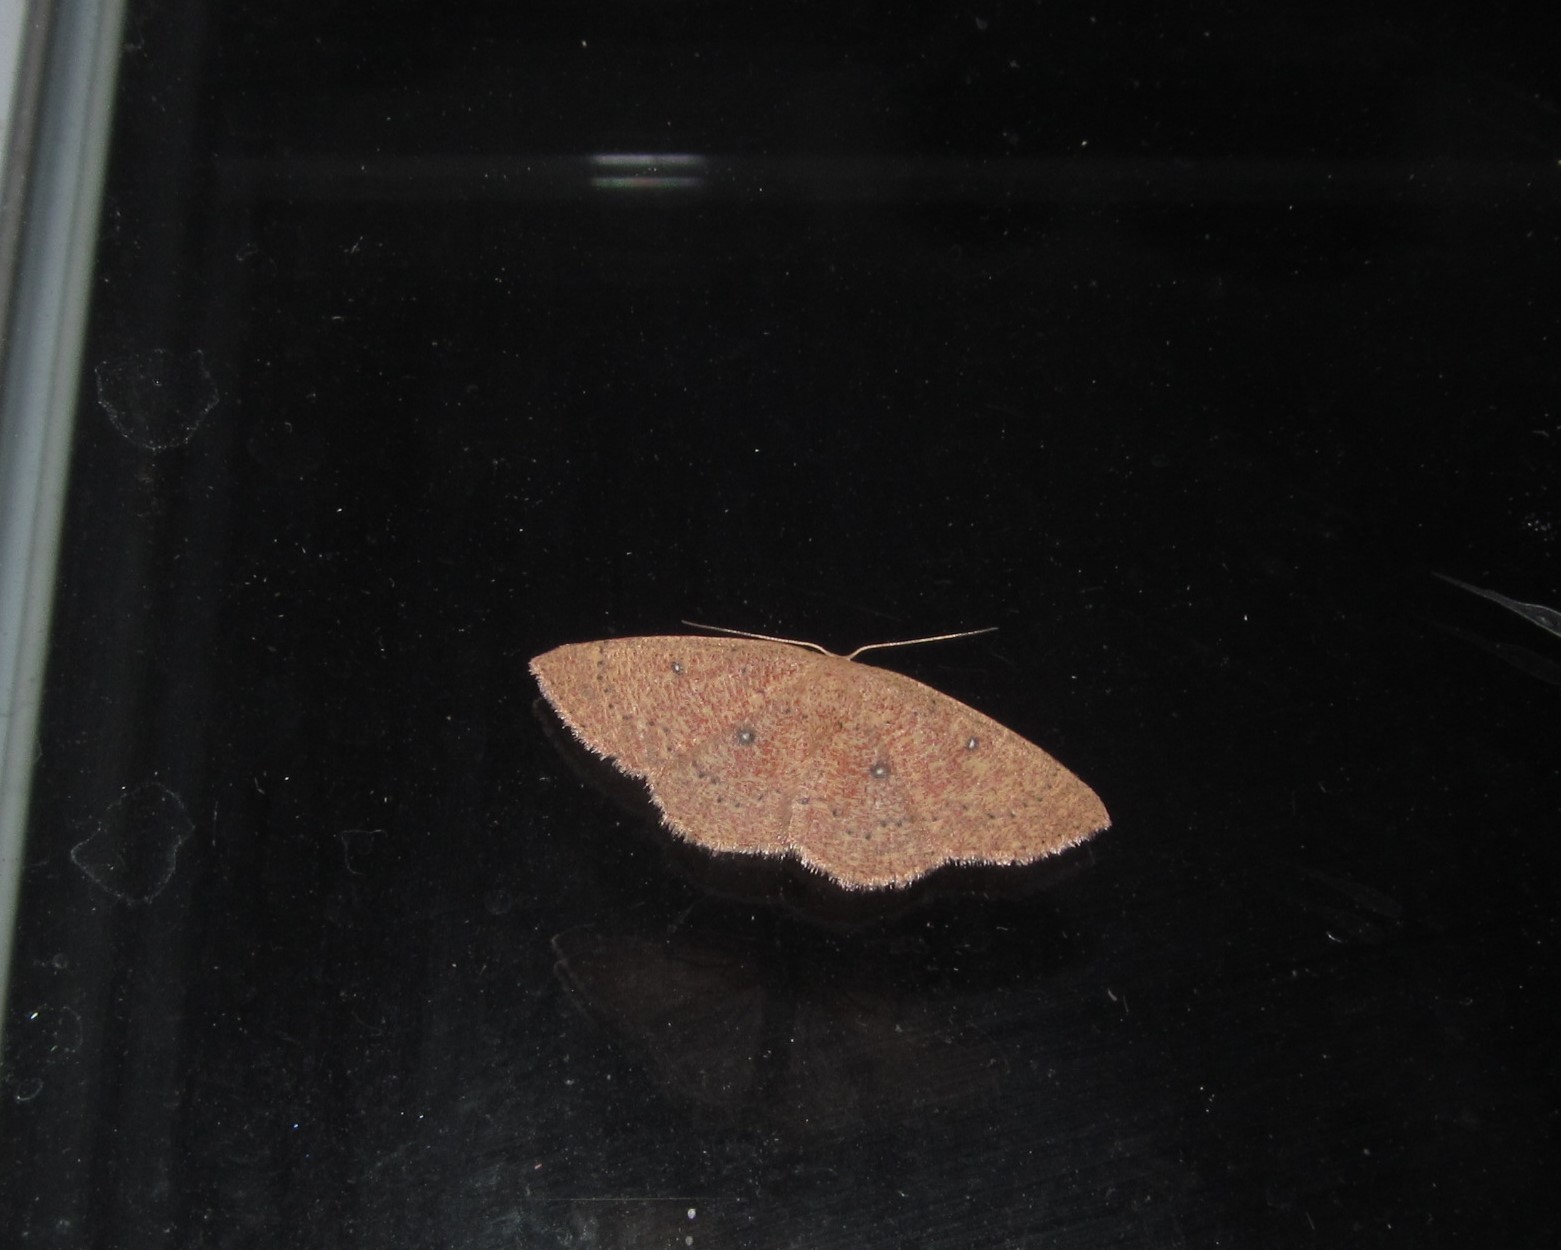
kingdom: Animalia
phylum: Arthropoda
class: Insecta
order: Lepidoptera
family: Geometridae
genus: Cyclophora
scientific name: Cyclophora packardi
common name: Packard's wave
